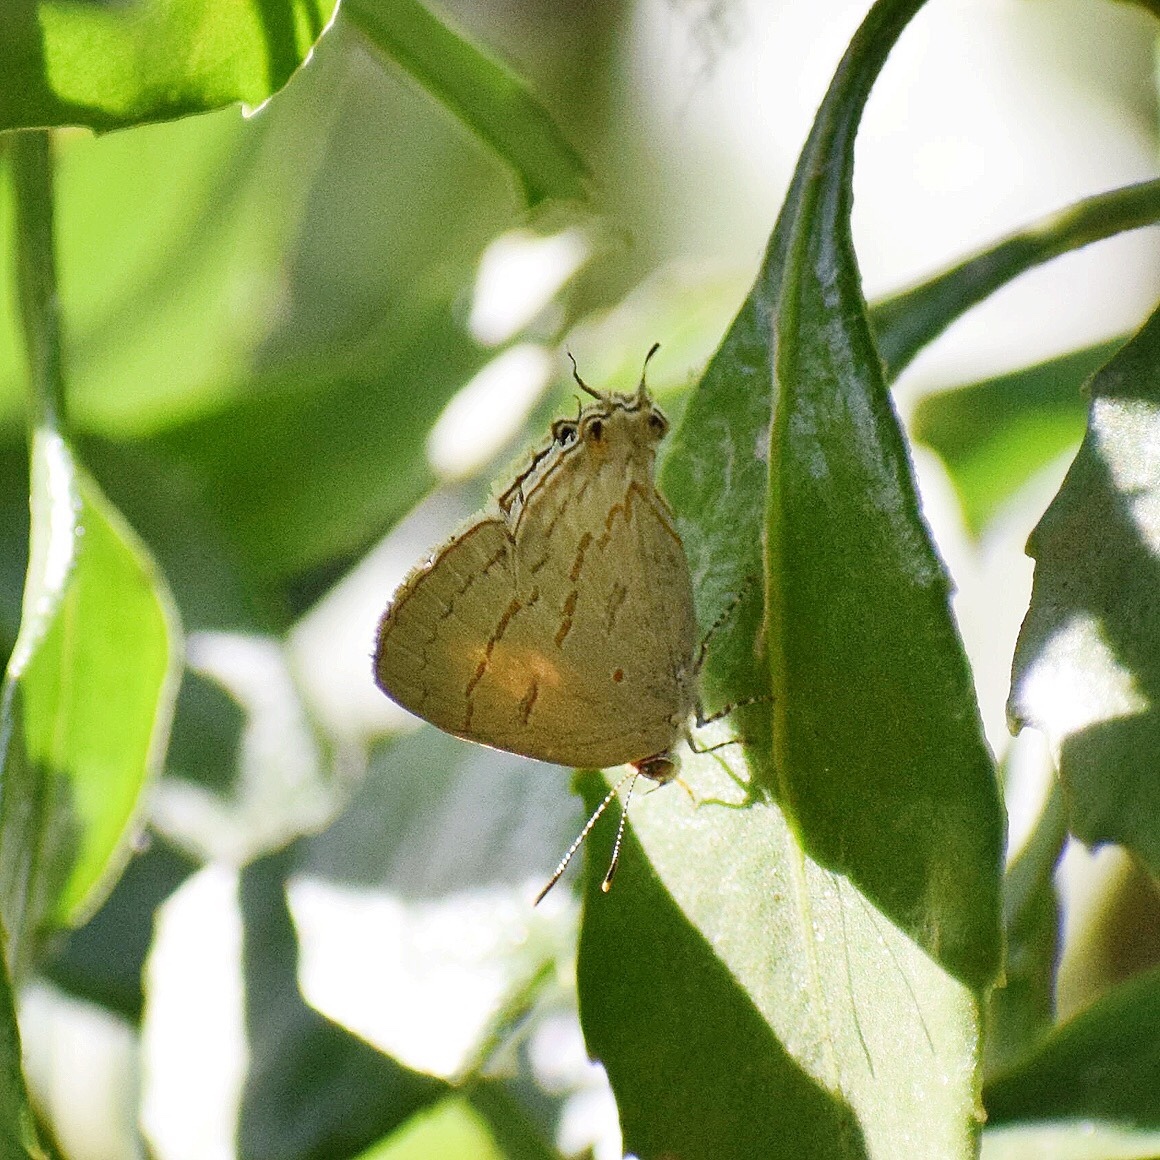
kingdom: Animalia
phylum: Arthropoda
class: Insecta
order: Lepidoptera
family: Lycaenidae
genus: Hypolycaena
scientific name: Hypolycaena philippus
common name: Common hairstreak
